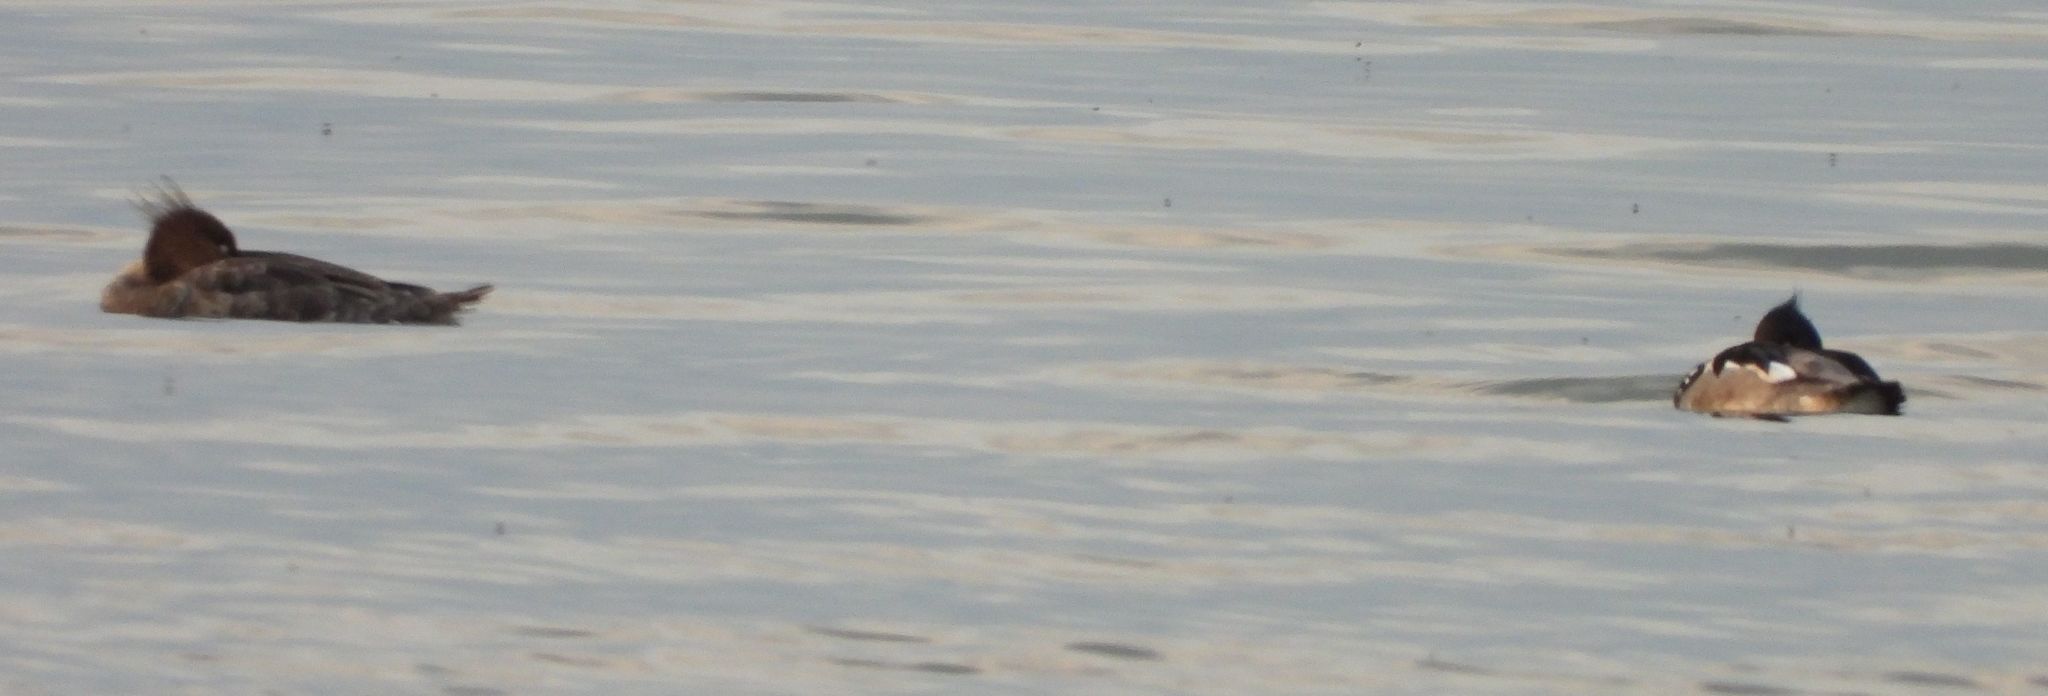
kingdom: Animalia
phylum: Chordata
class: Aves
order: Anseriformes
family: Anatidae
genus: Mergus
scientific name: Mergus serrator
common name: Red-breasted merganser
